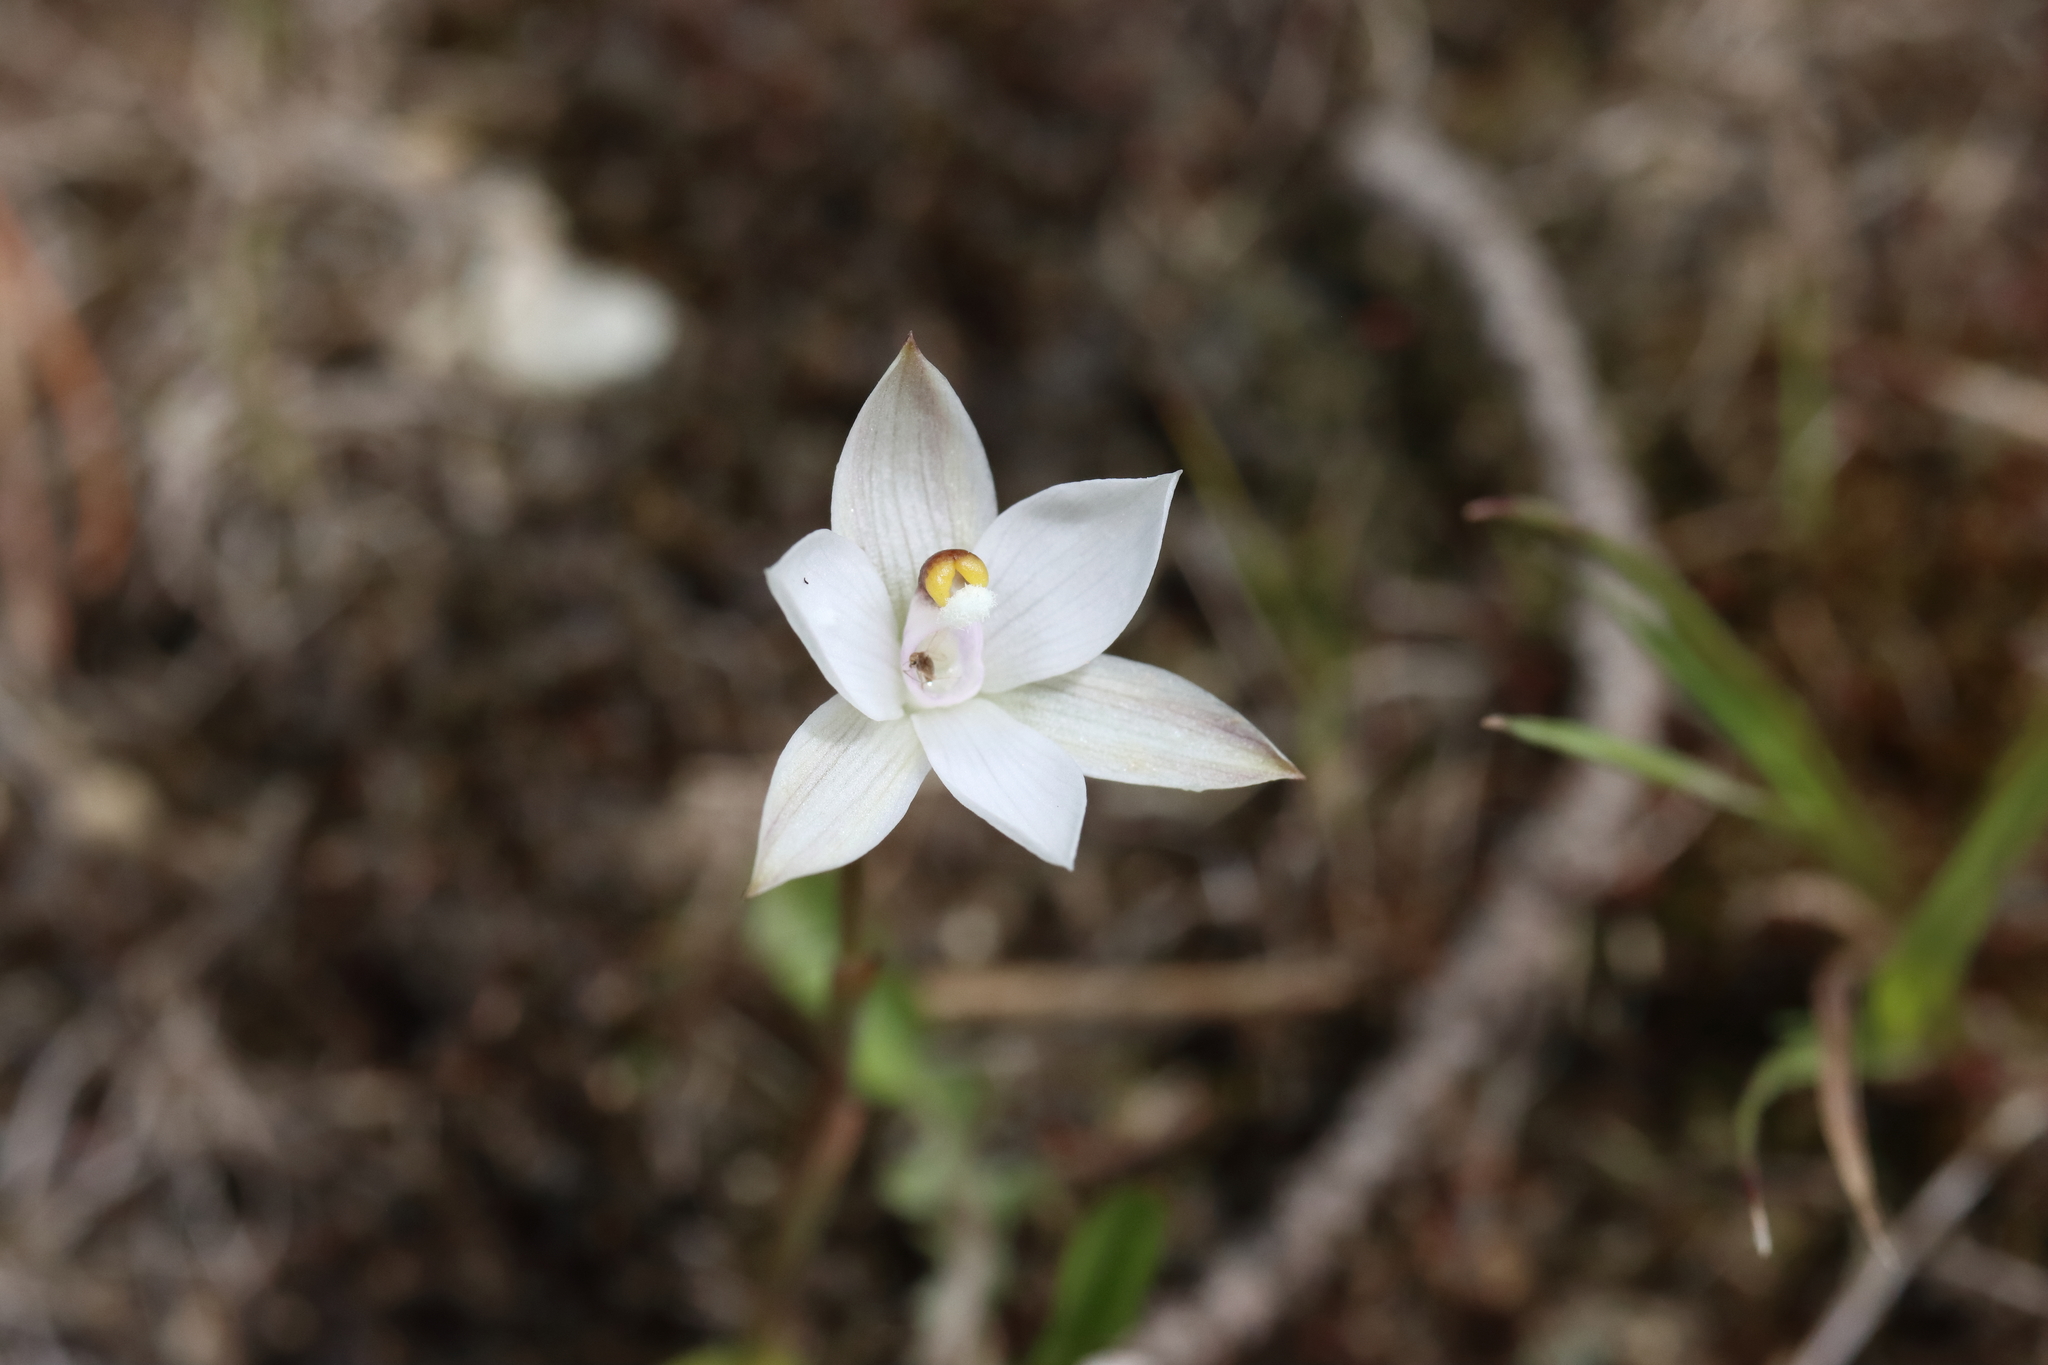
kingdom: Plantae
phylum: Tracheophyta
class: Liliopsida
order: Asparagales
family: Orchidaceae
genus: Thelymitra
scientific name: Thelymitra longifolia
